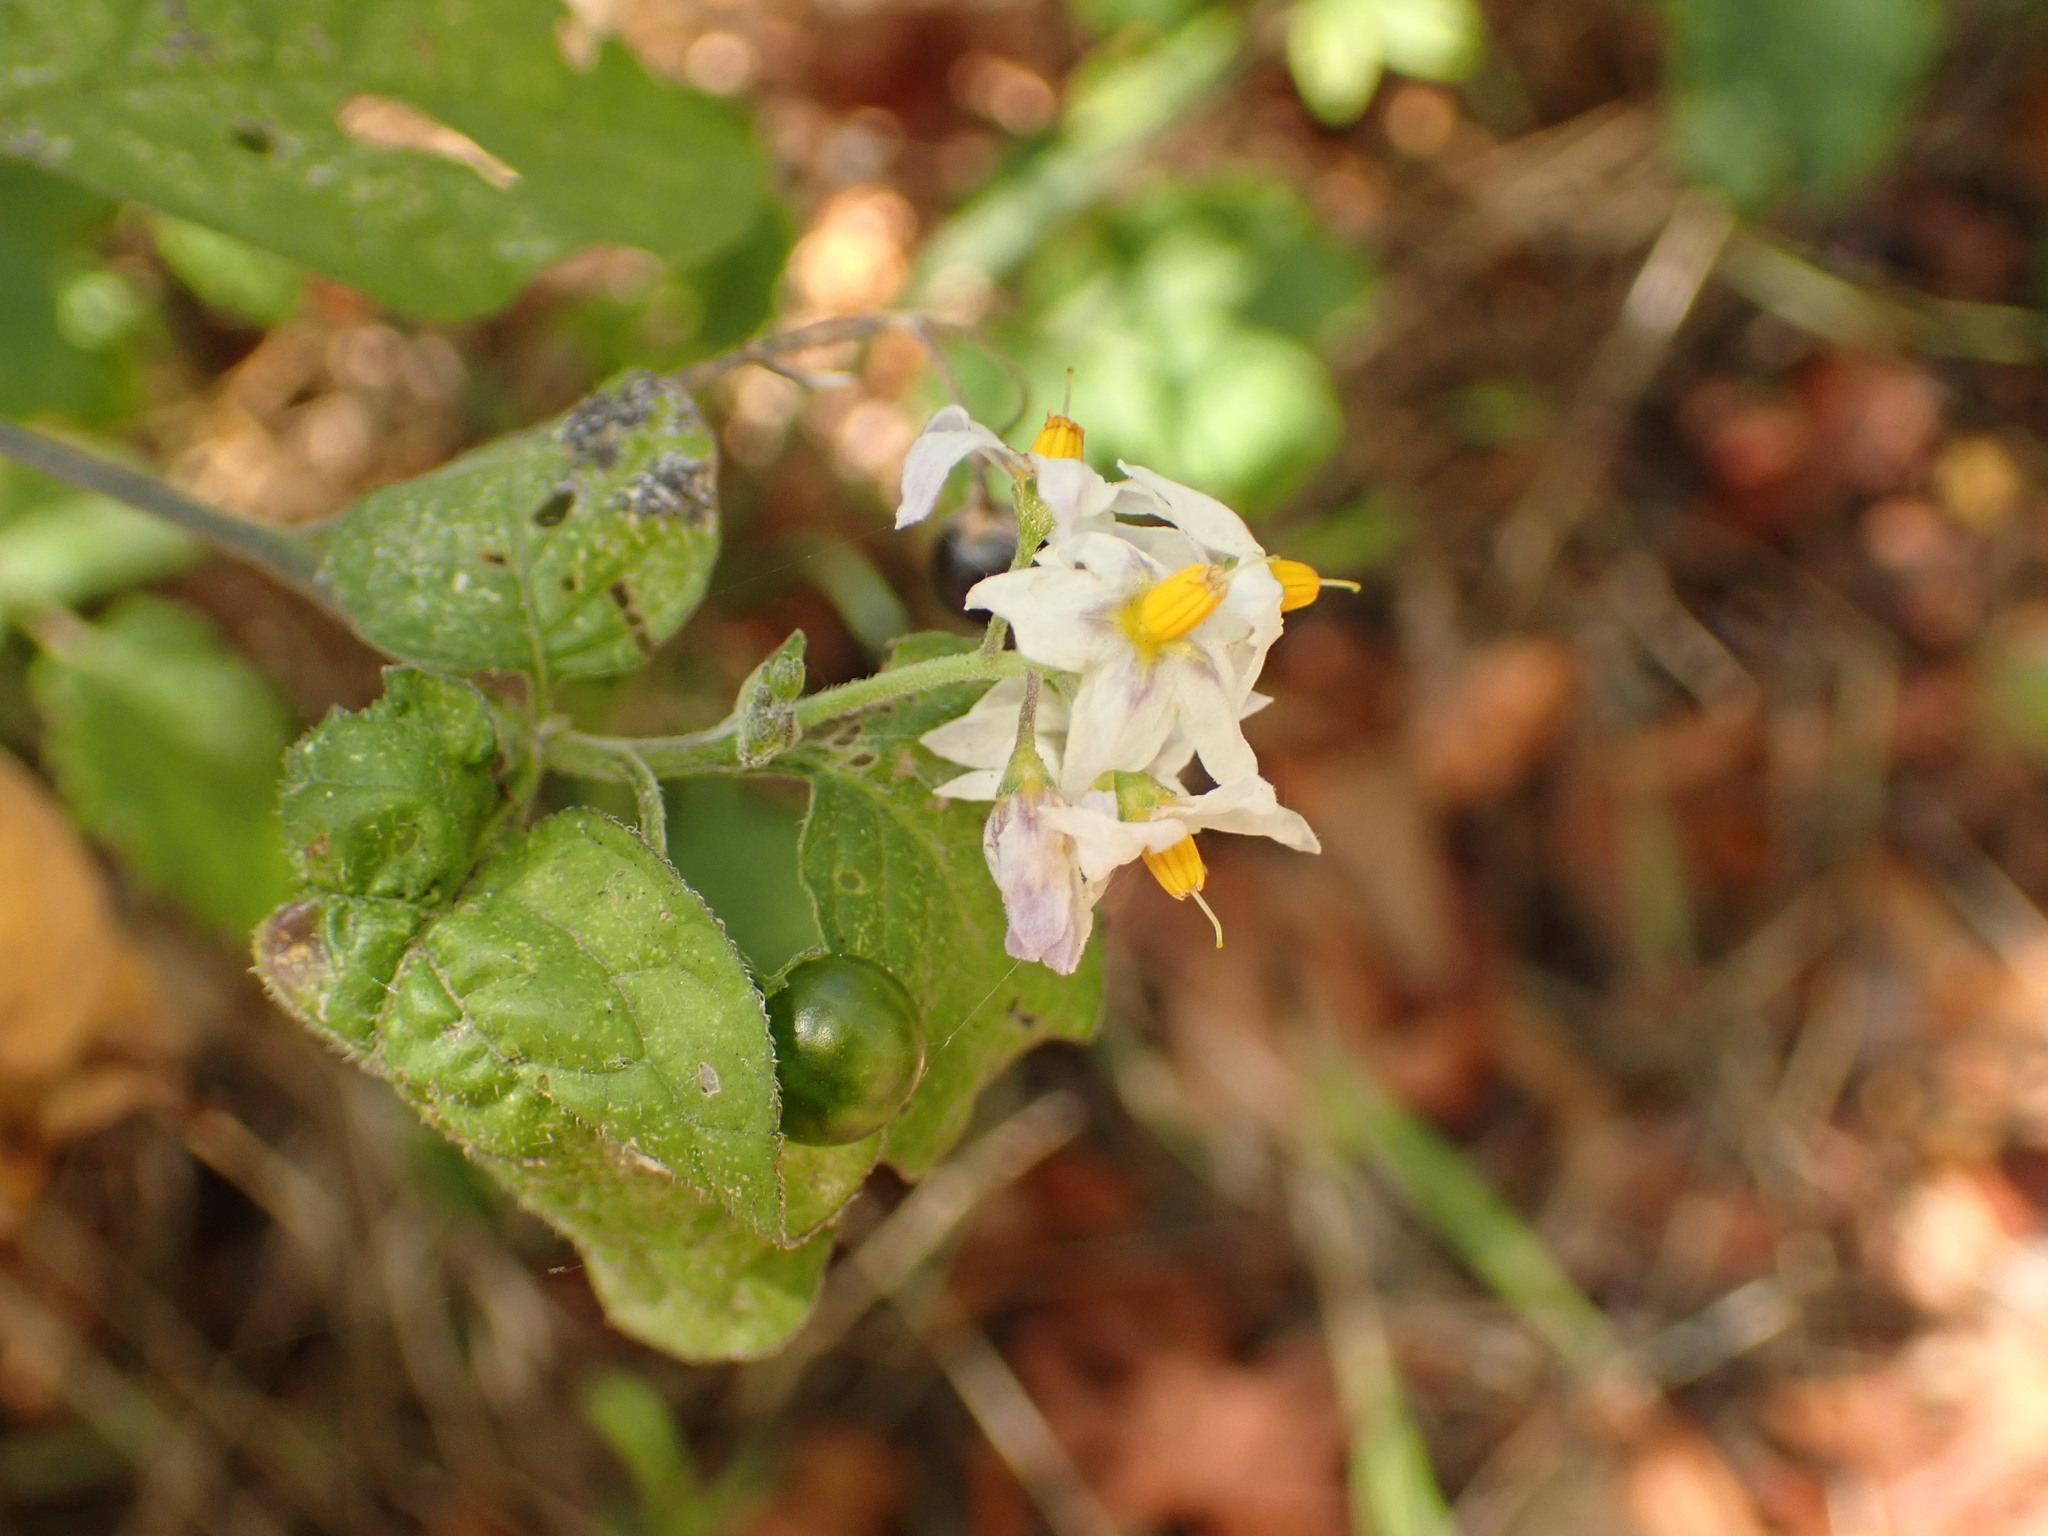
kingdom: Plantae
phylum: Tracheophyta
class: Magnoliopsida
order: Solanales
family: Solanaceae
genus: Solanum
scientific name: Solanum douglasii
